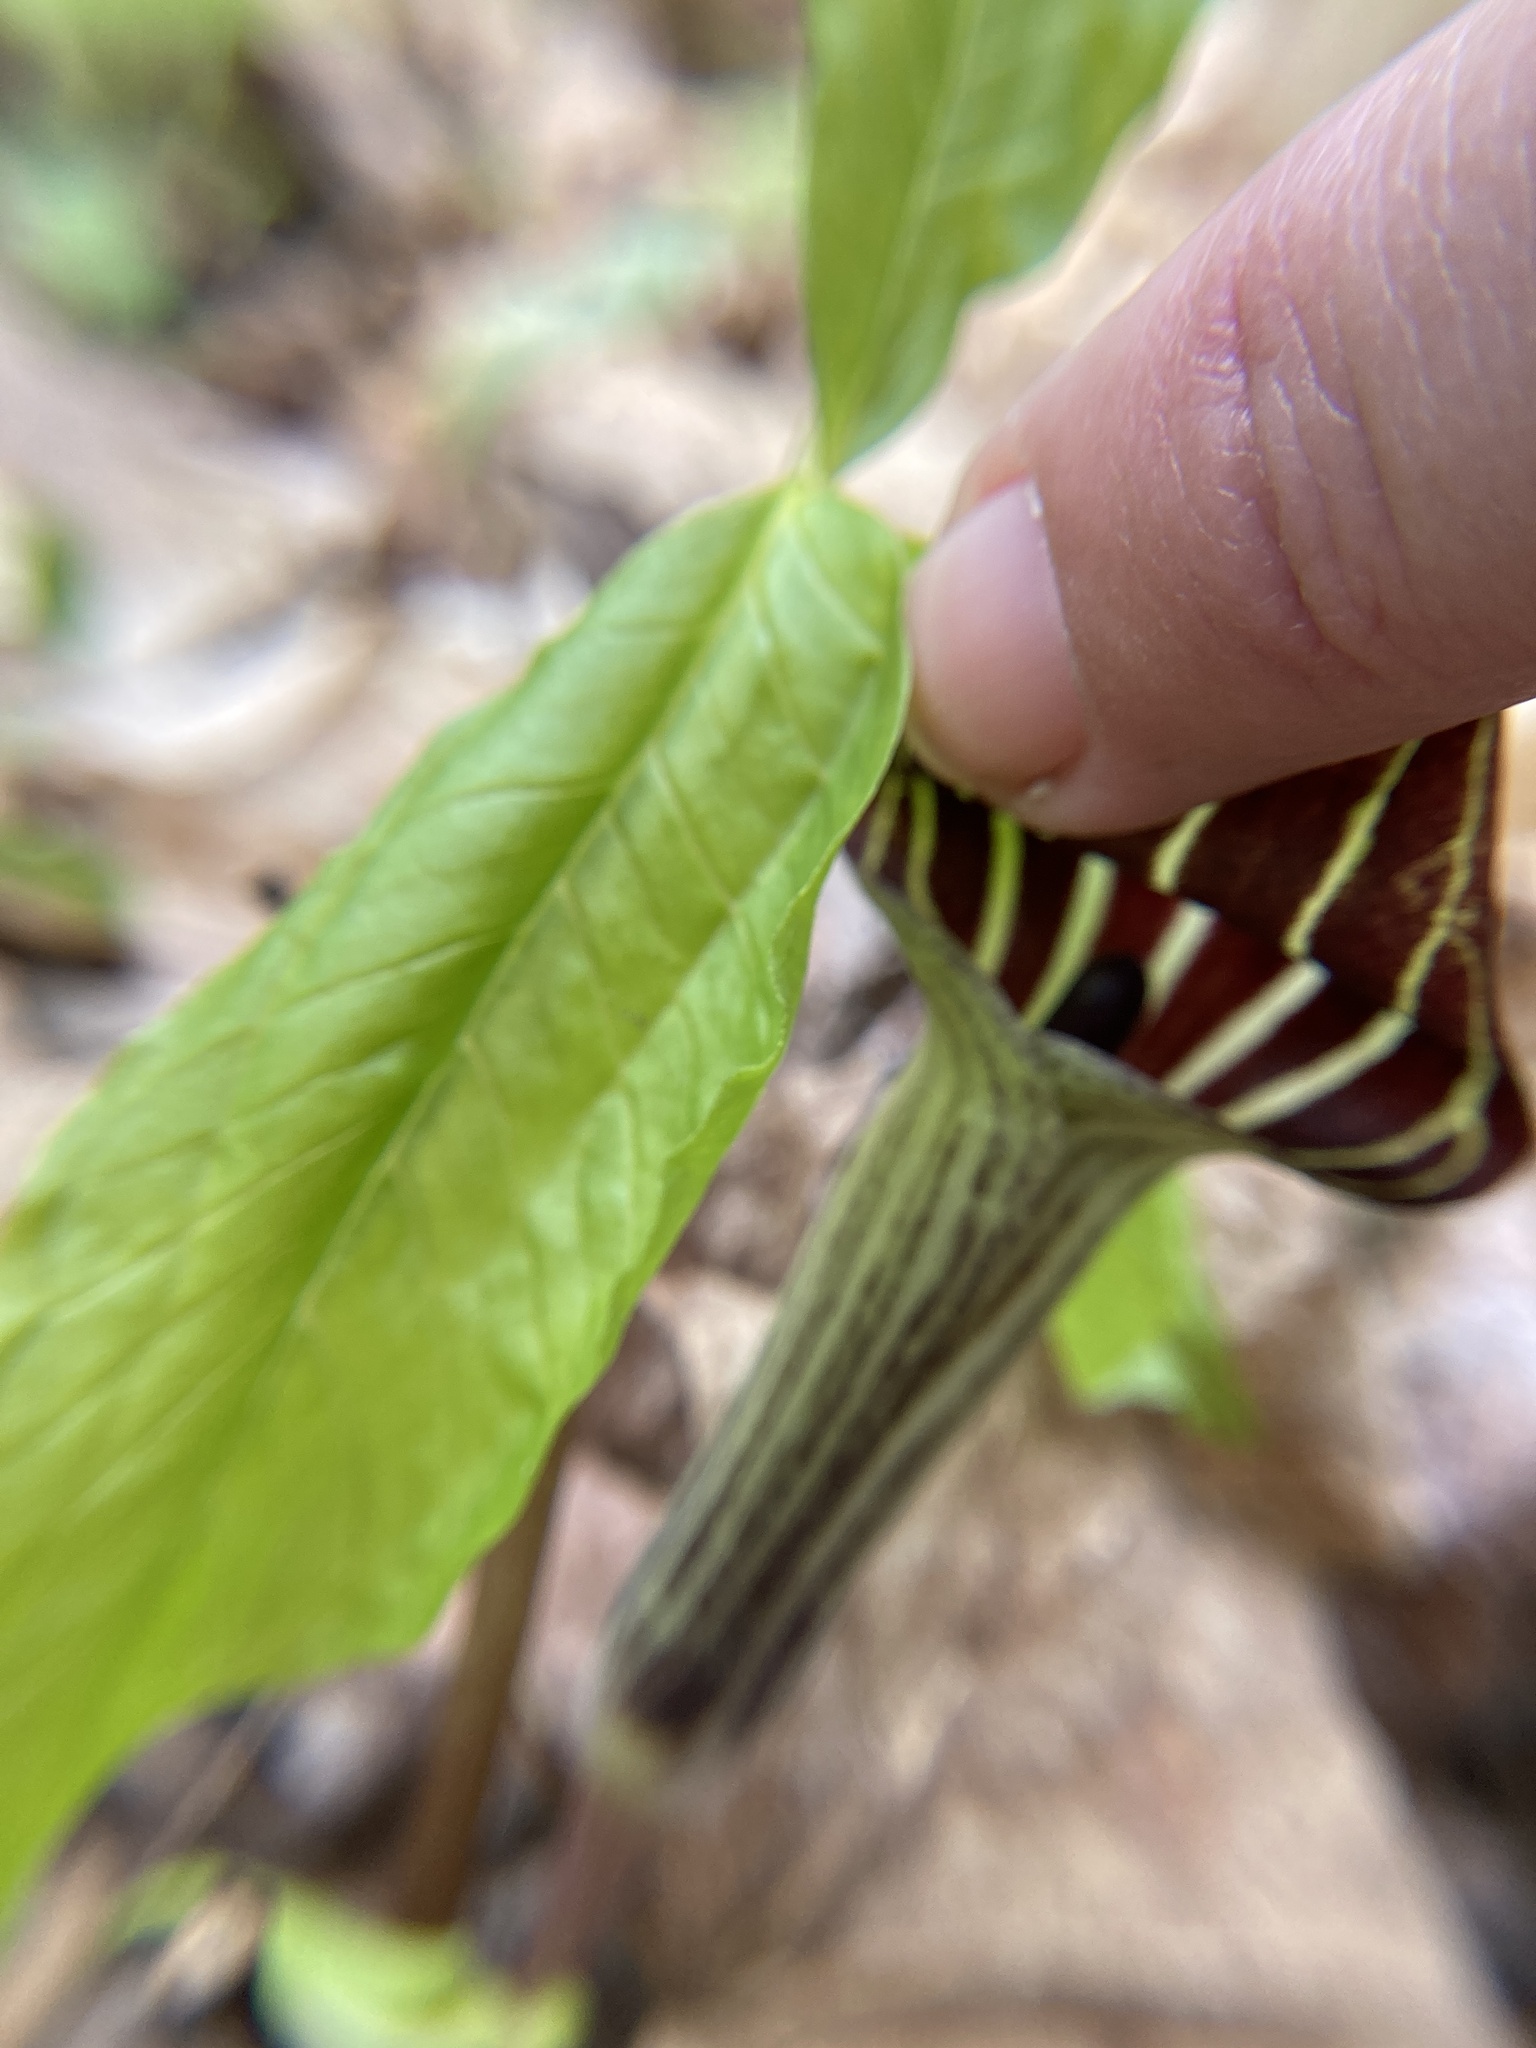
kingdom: Plantae
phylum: Tracheophyta
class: Liliopsida
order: Alismatales
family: Araceae
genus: Arisaema
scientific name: Arisaema triphyllum
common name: Jack-in-the-pulpit
